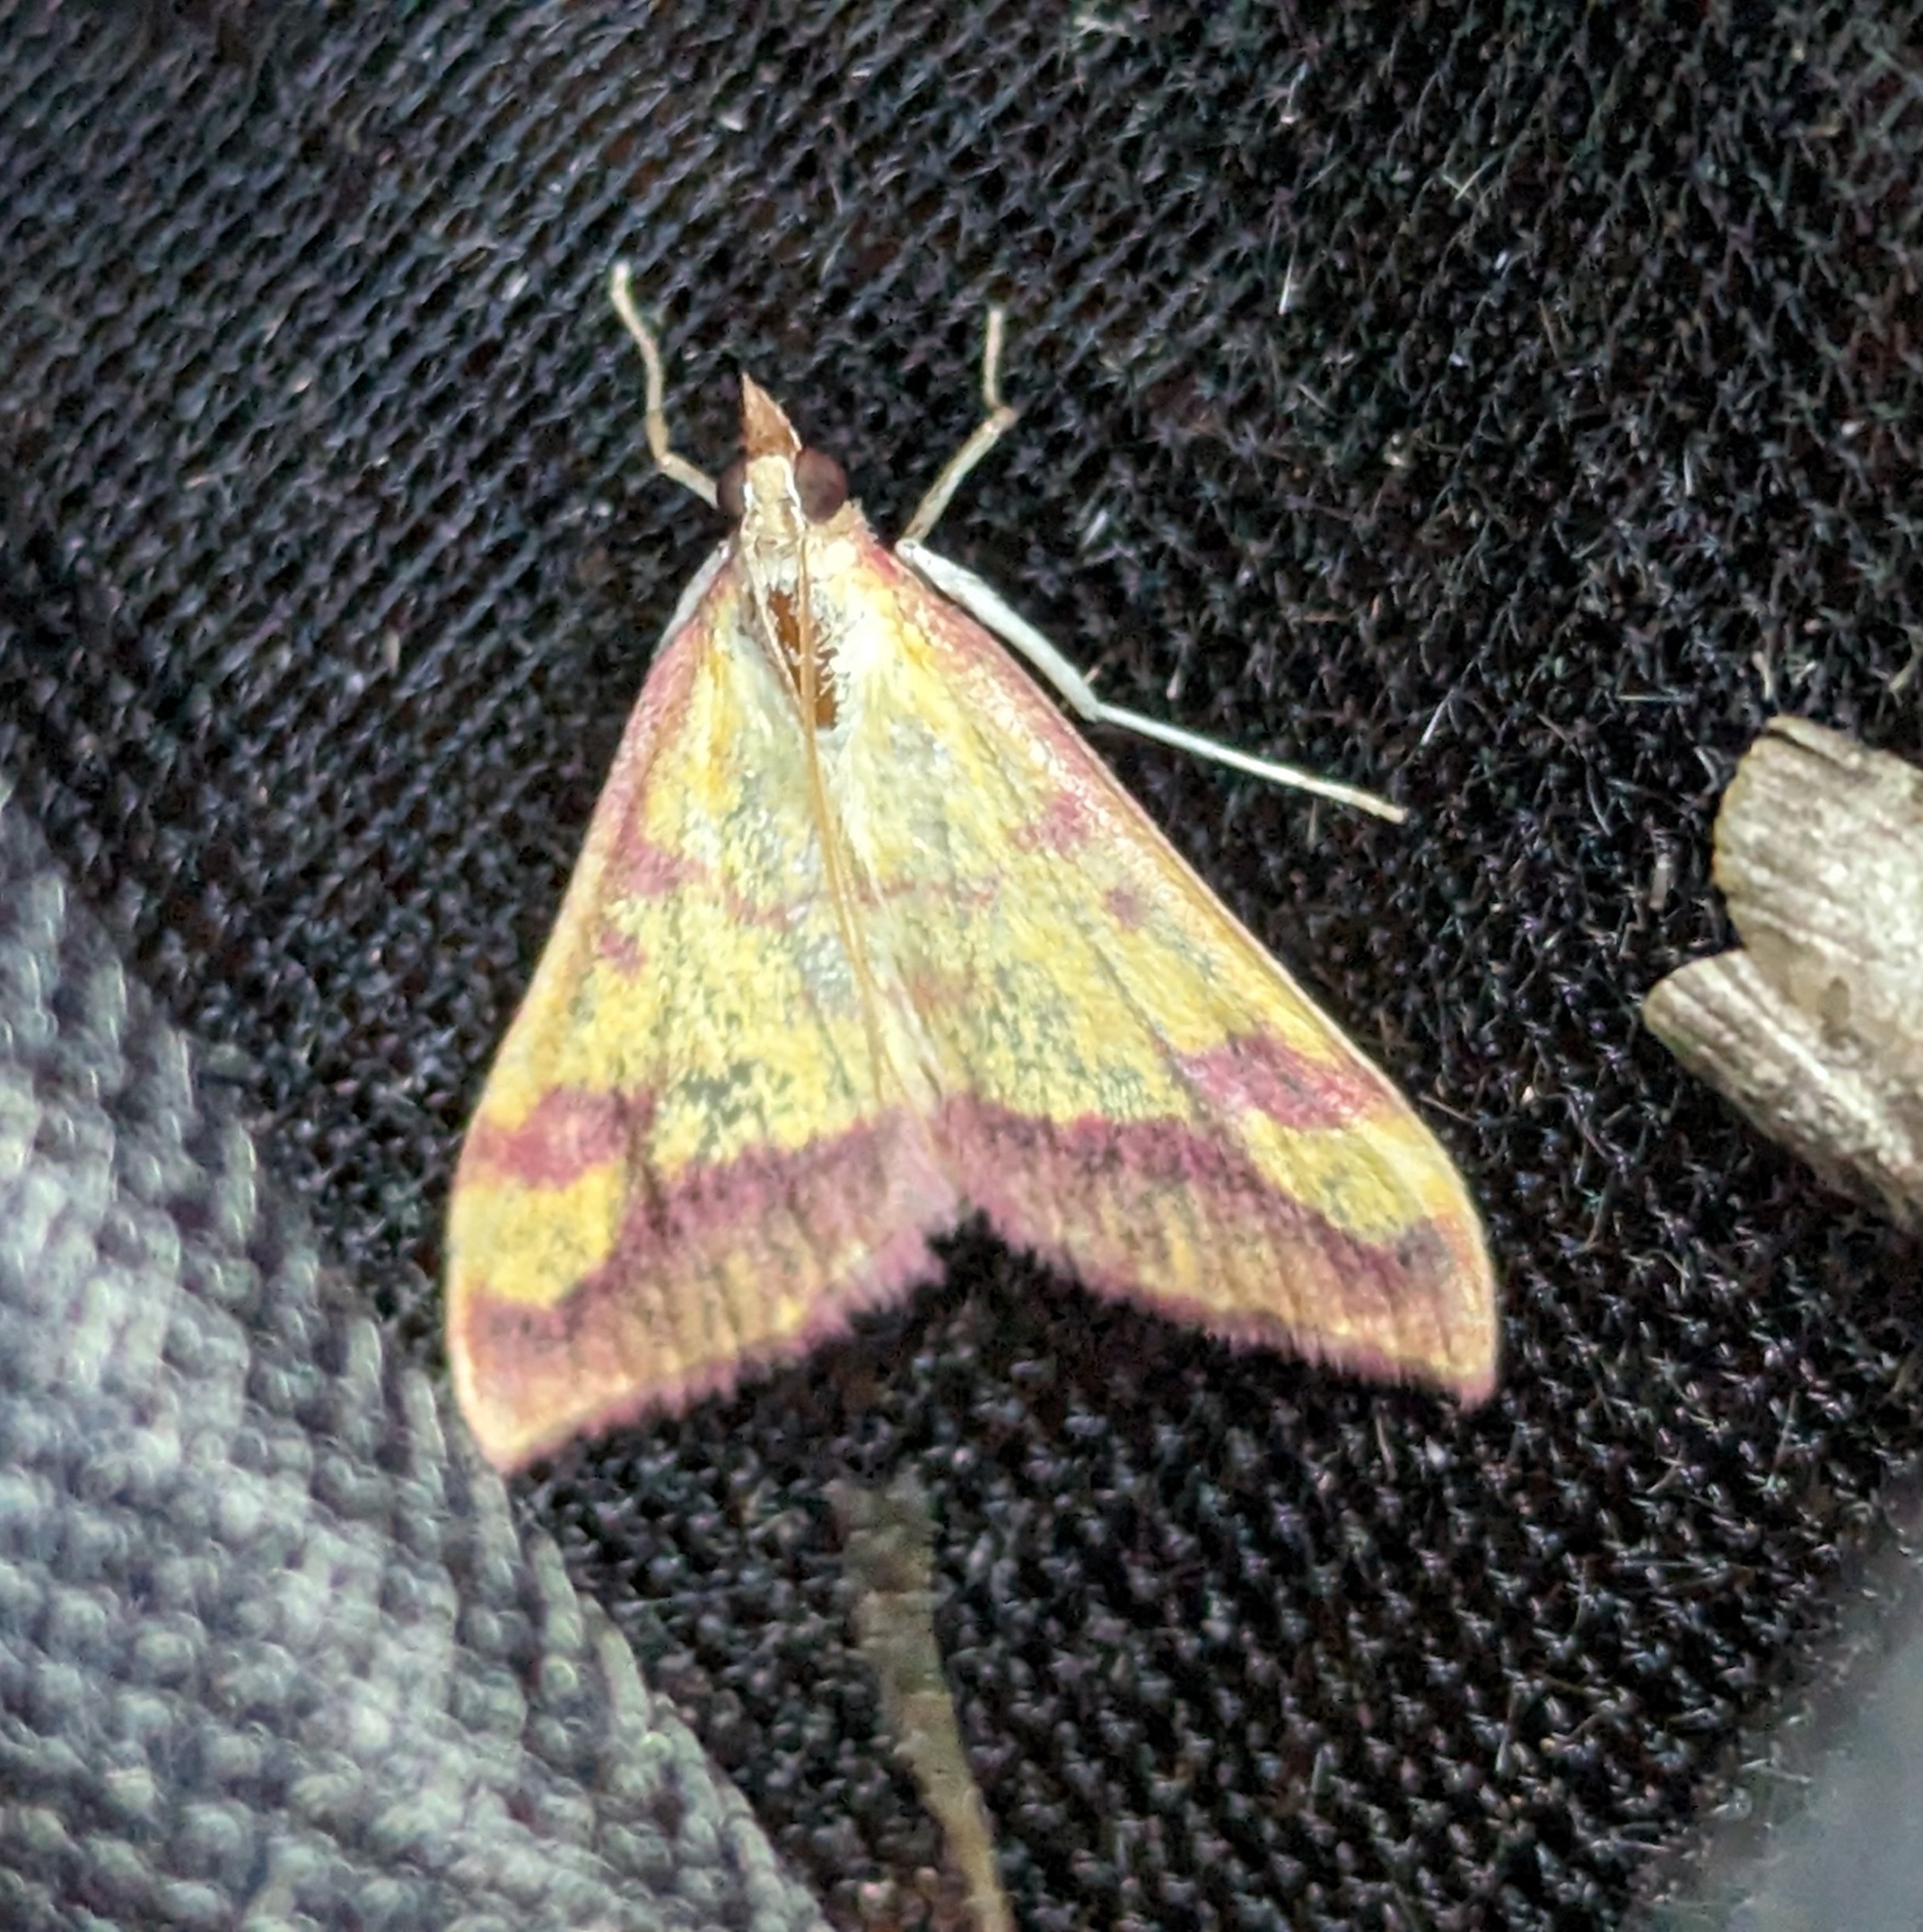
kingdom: Animalia
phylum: Arthropoda
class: Insecta
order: Lepidoptera
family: Crambidae
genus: Pyrausta
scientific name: Pyrausta perrubralis
